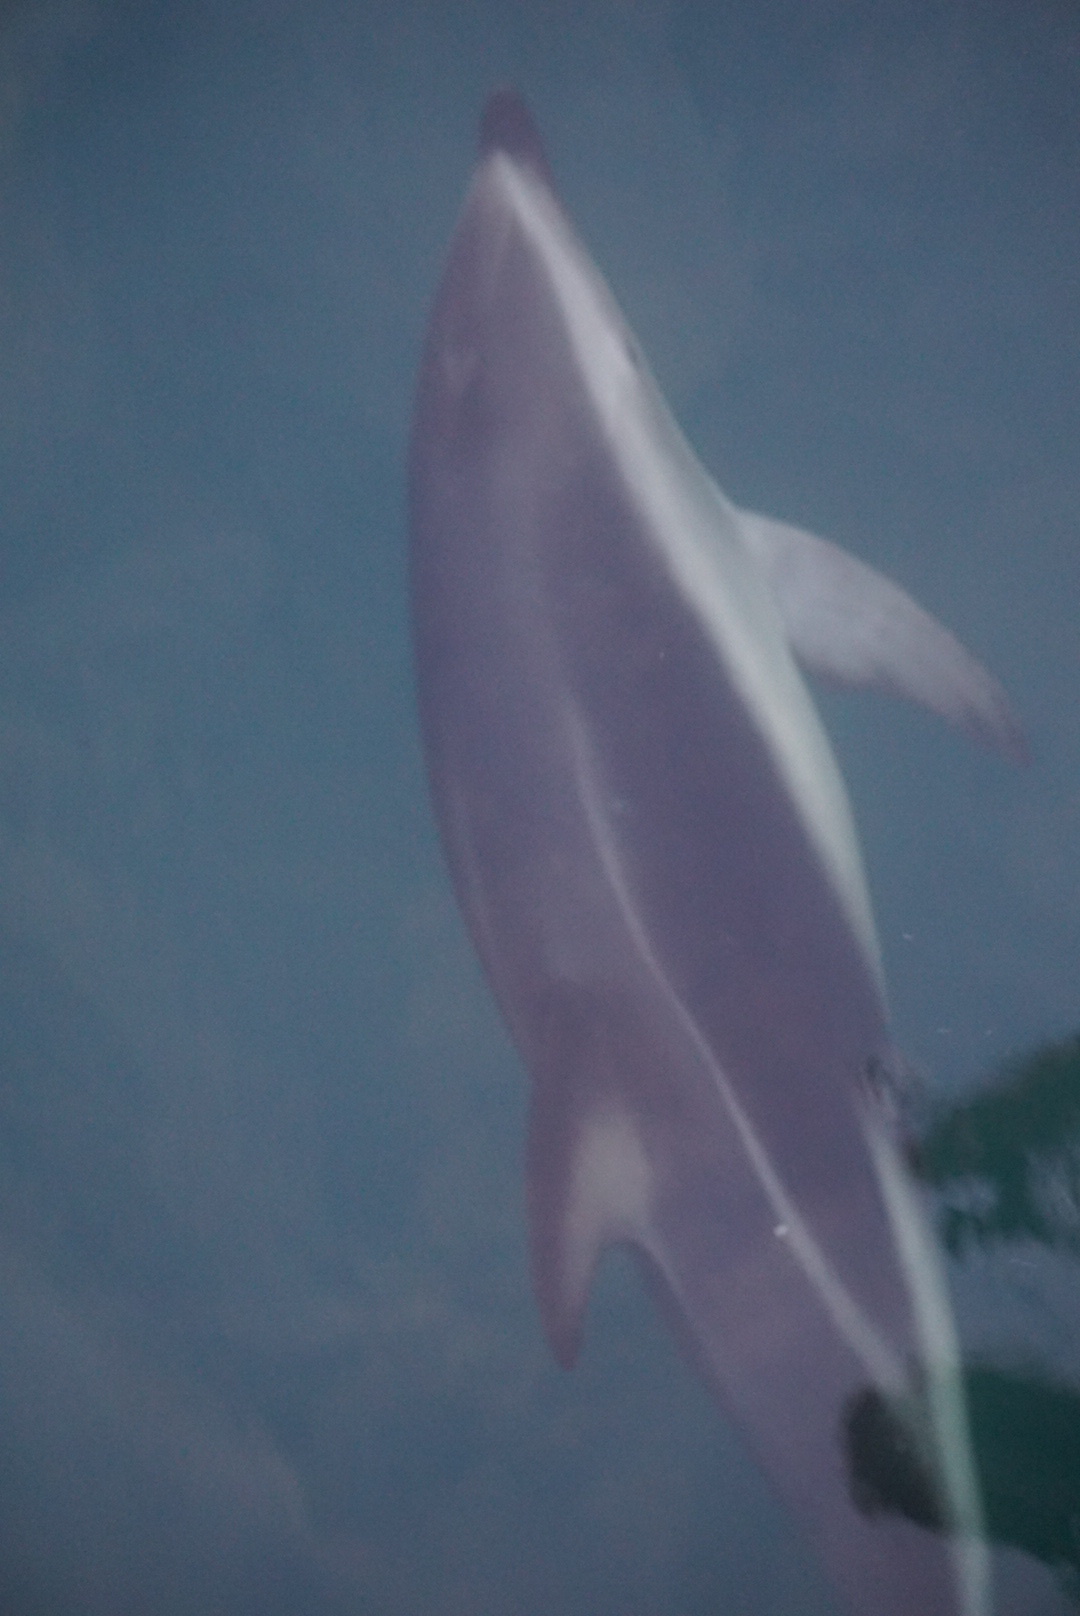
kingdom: Animalia
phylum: Chordata
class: Mammalia
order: Cetacea
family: Delphinidae
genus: Lagenorhynchus
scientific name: Lagenorhynchus obscurus
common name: Dusky dolphin
